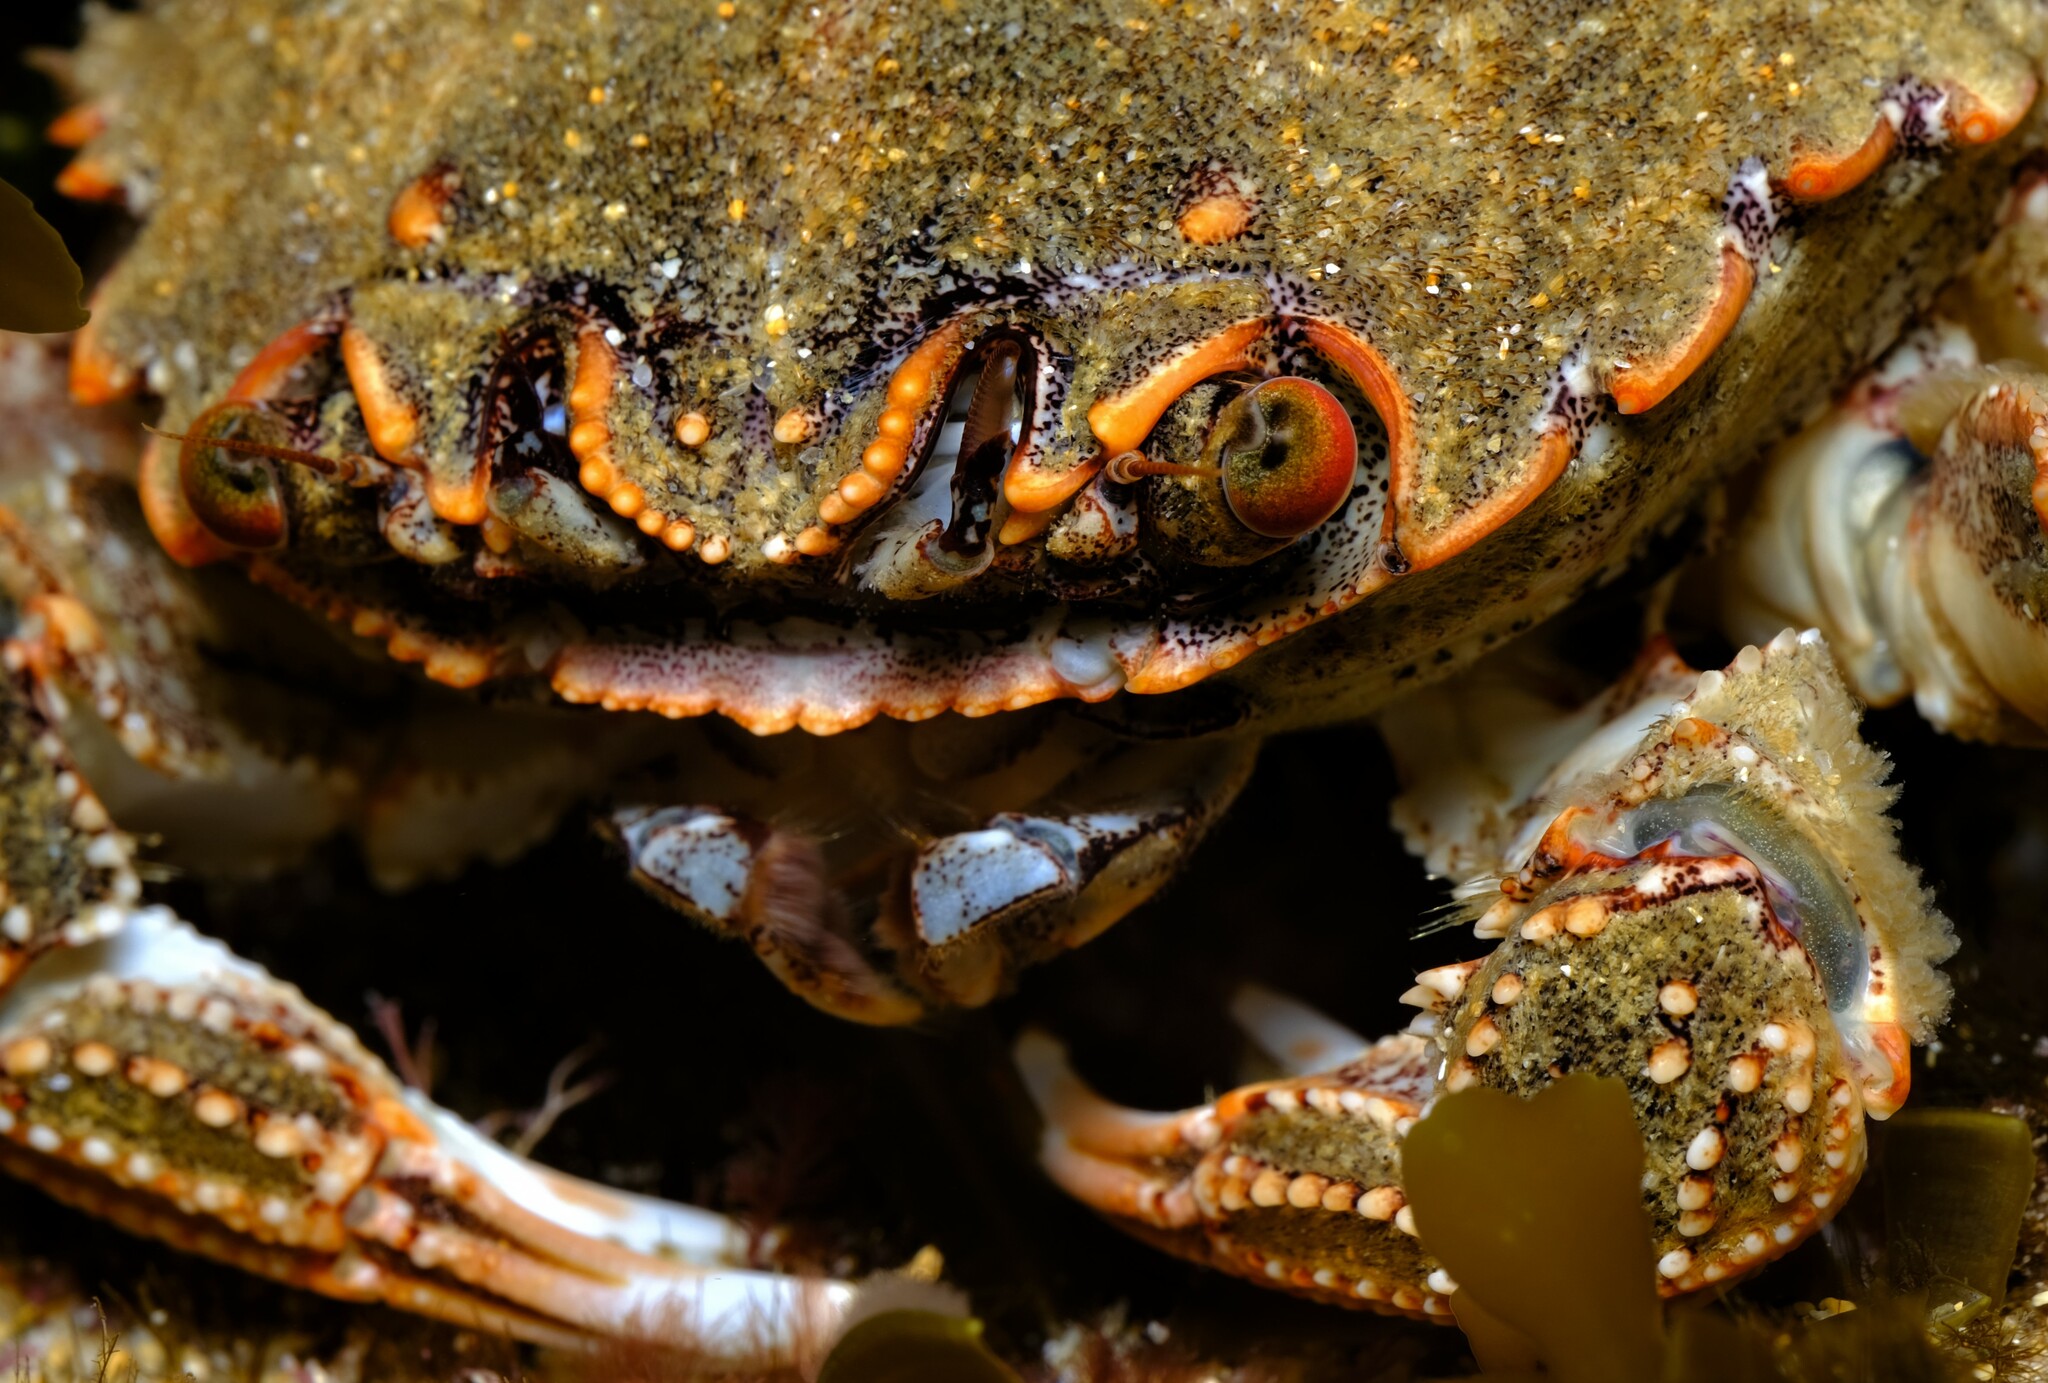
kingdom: Animalia
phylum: Arthropoda
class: Malacostraca
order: Decapoda
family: Plagusiidae
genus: Guinusia
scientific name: Guinusia chabrus
